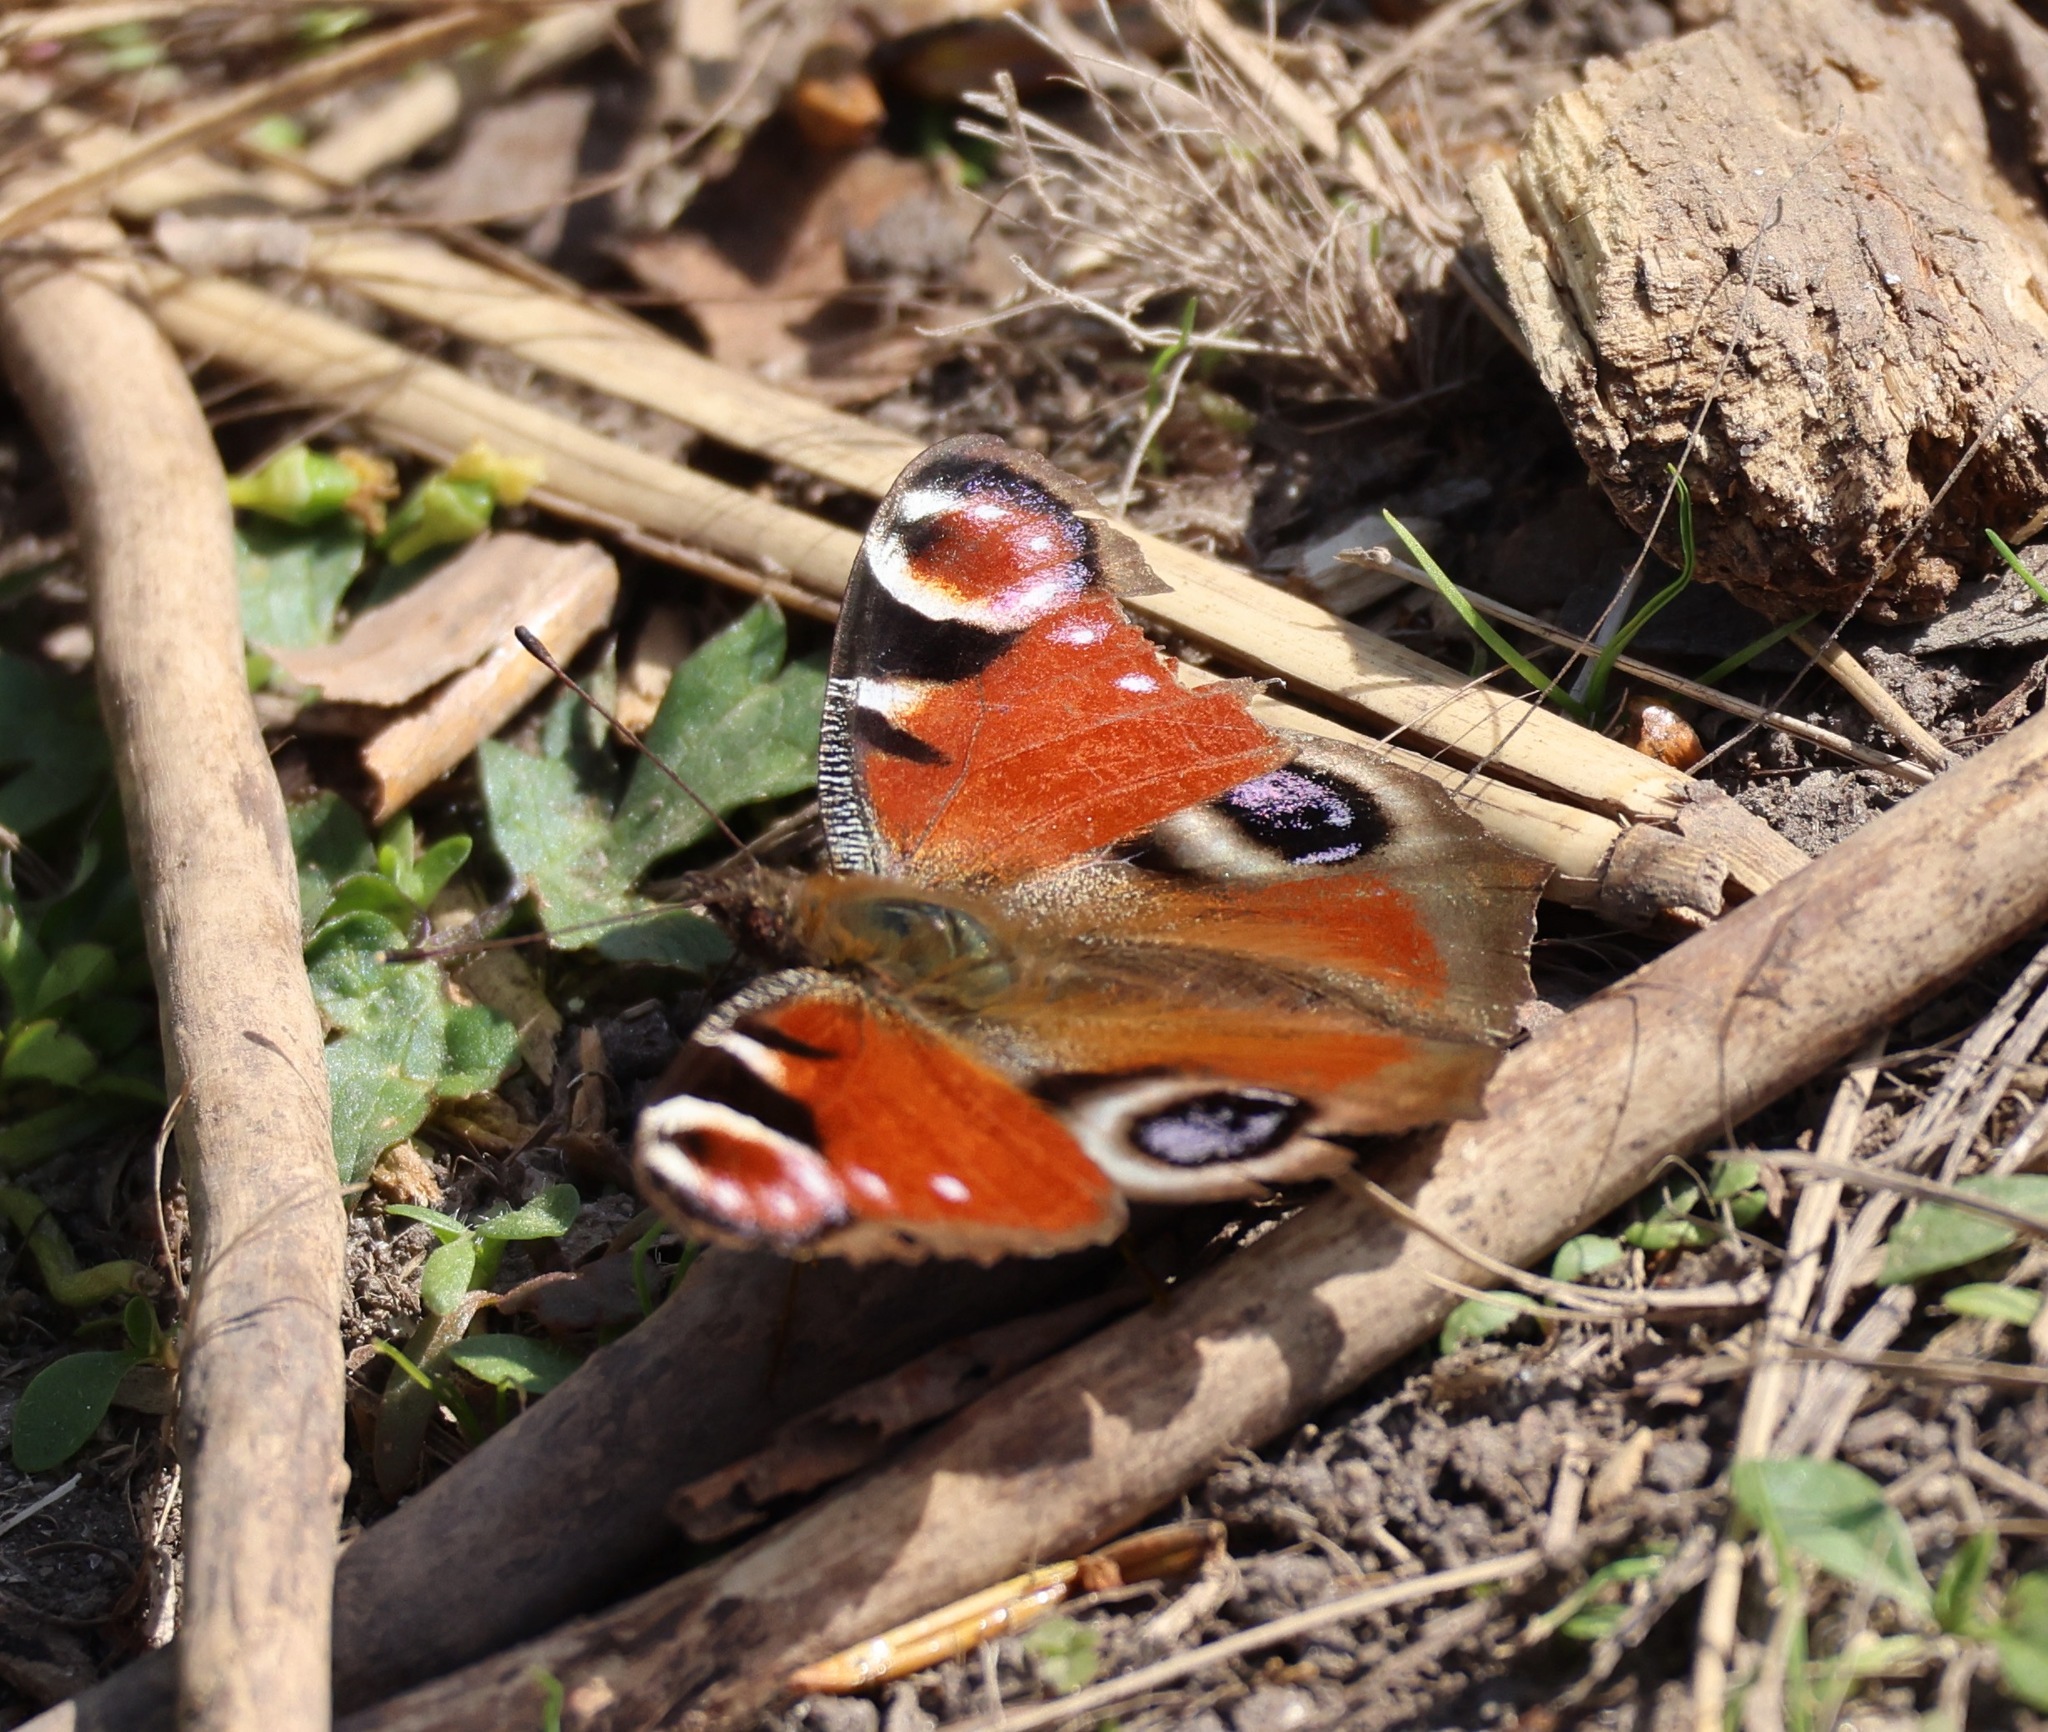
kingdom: Animalia
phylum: Arthropoda
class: Insecta
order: Lepidoptera
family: Nymphalidae
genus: Aglais
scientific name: Aglais io
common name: Peacock
